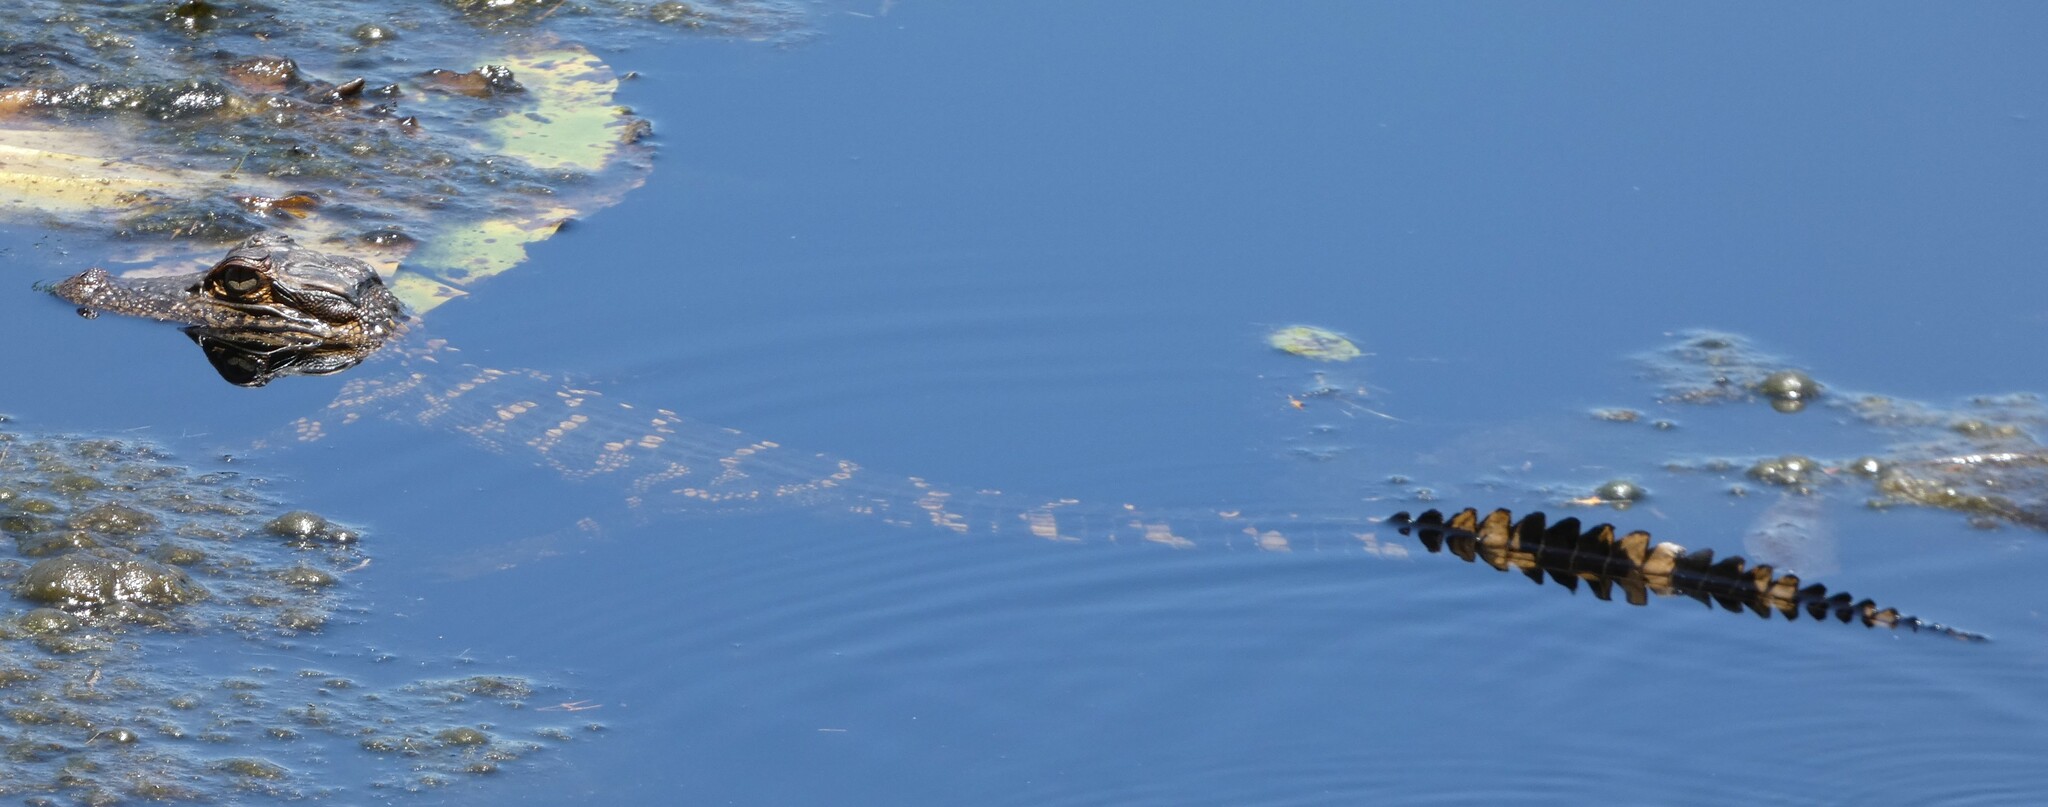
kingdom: Animalia
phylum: Chordata
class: Crocodylia
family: Alligatoridae
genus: Alligator
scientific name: Alligator mississippiensis
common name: American alligator
